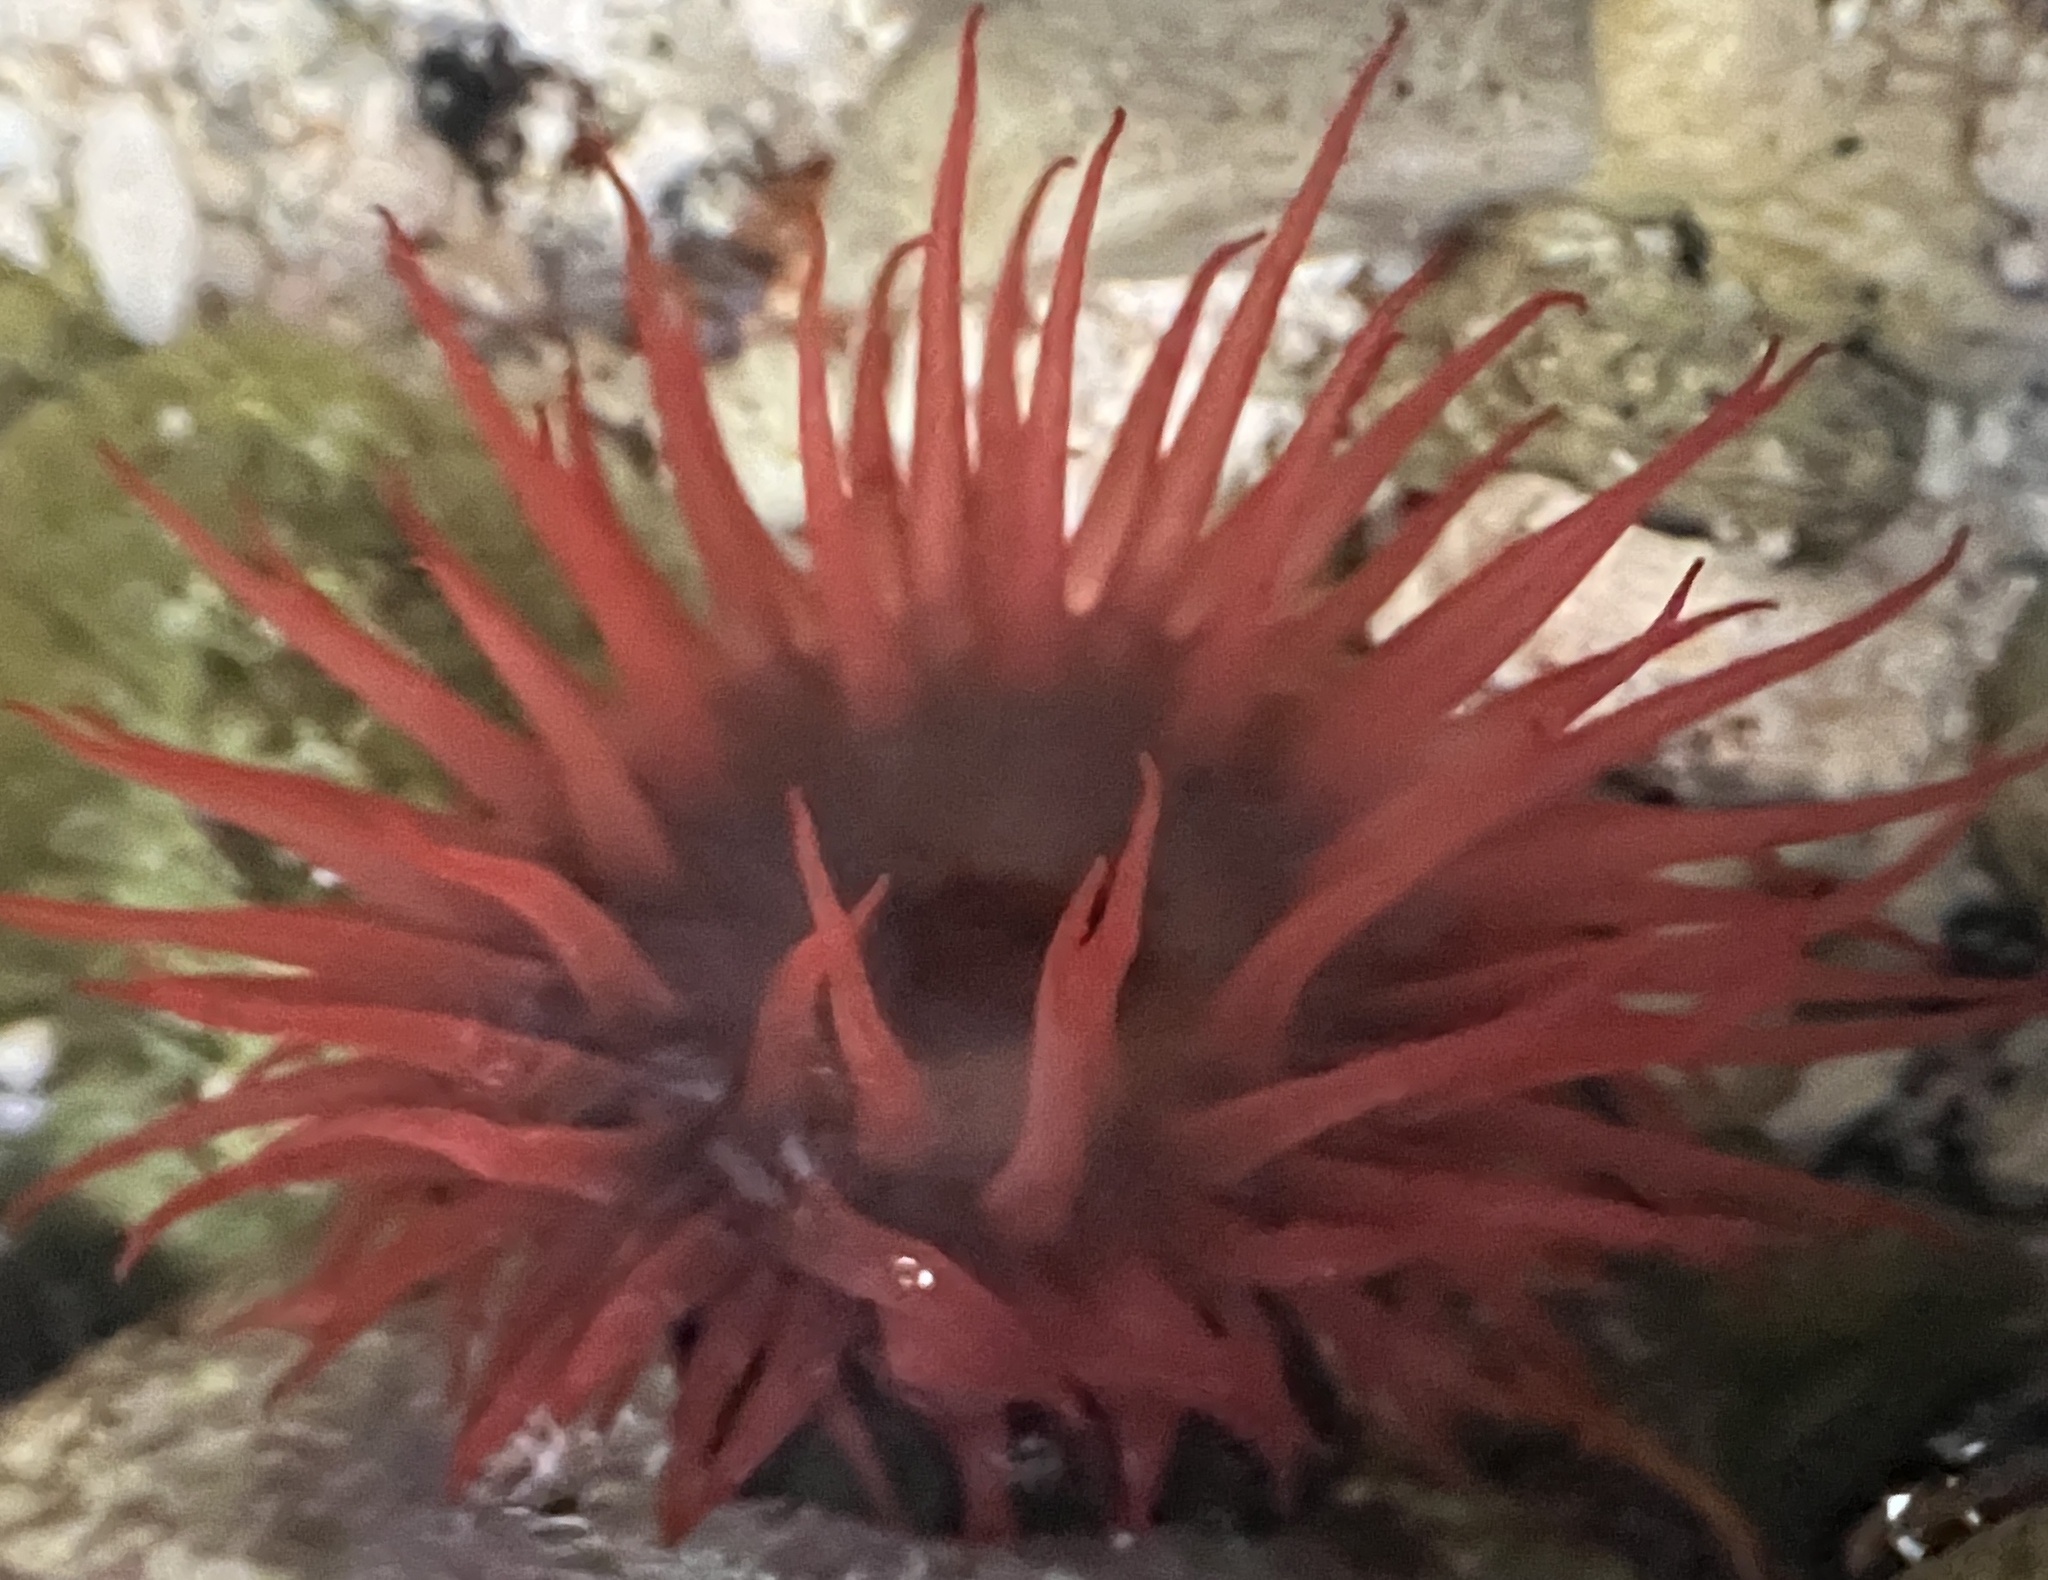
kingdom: Animalia
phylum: Cnidaria
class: Anthozoa
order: Actiniaria
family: Actiniidae
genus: Actinia
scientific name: Actinia bermudensis
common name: Maroon anemone
